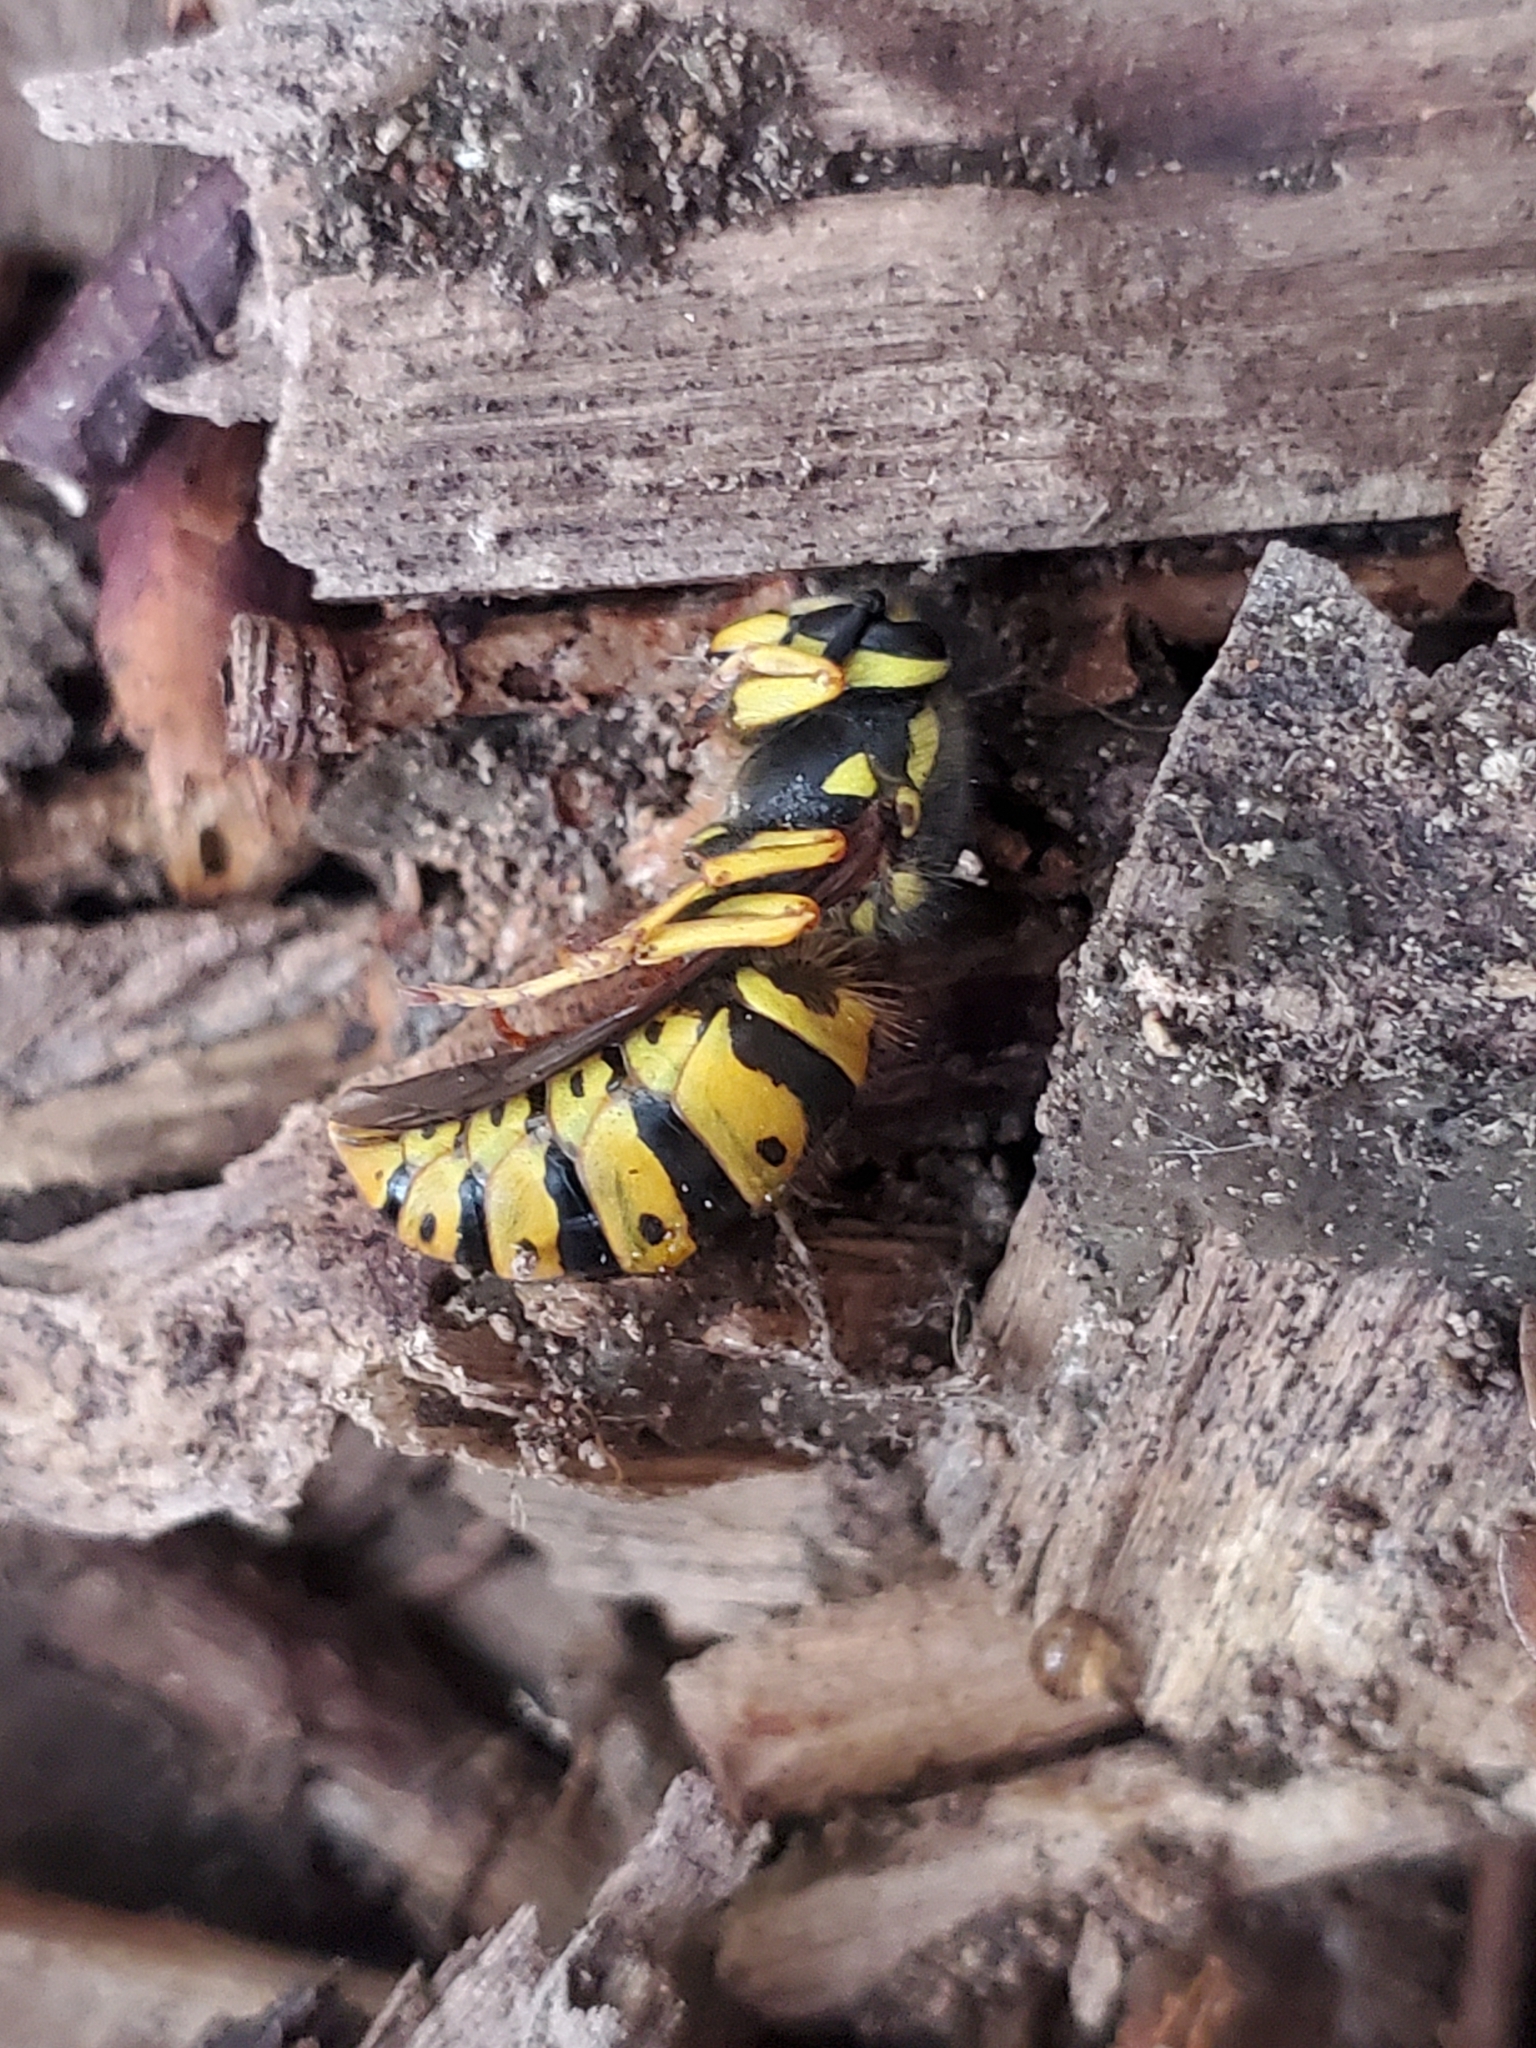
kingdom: Animalia
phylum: Arthropoda
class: Insecta
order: Hymenoptera
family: Vespidae
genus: Vespula
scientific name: Vespula
